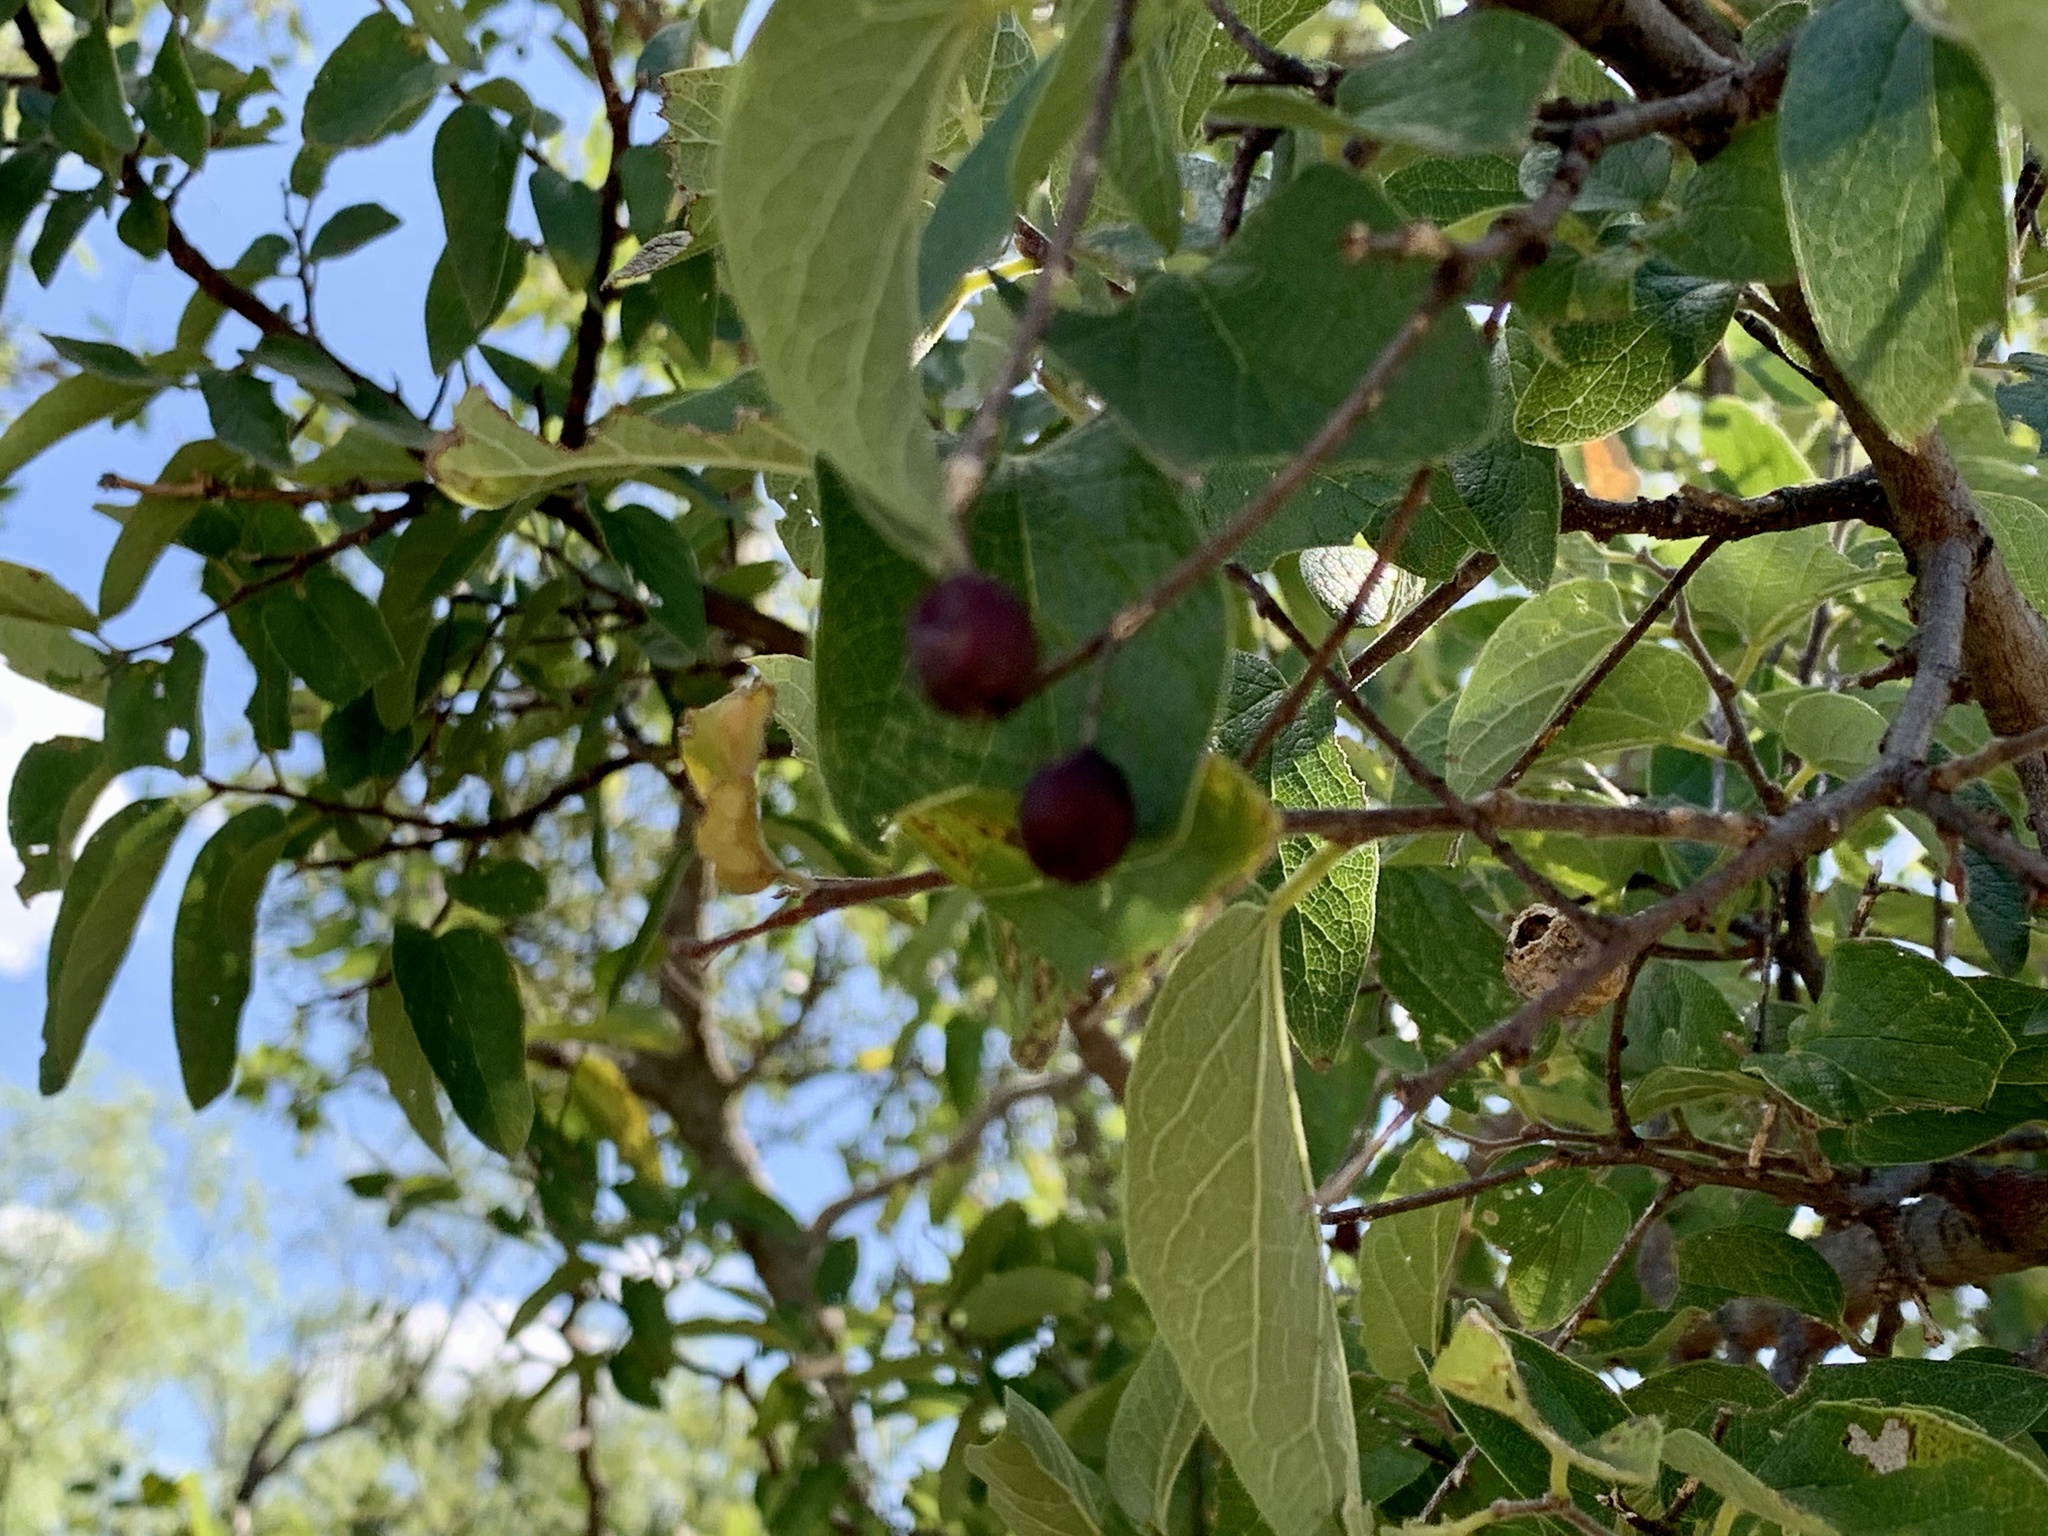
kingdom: Plantae
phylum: Tracheophyta
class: Magnoliopsida
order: Rosales
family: Cannabaceae
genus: Celtis
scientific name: Celtis reticulata
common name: Netleaf hackberry
